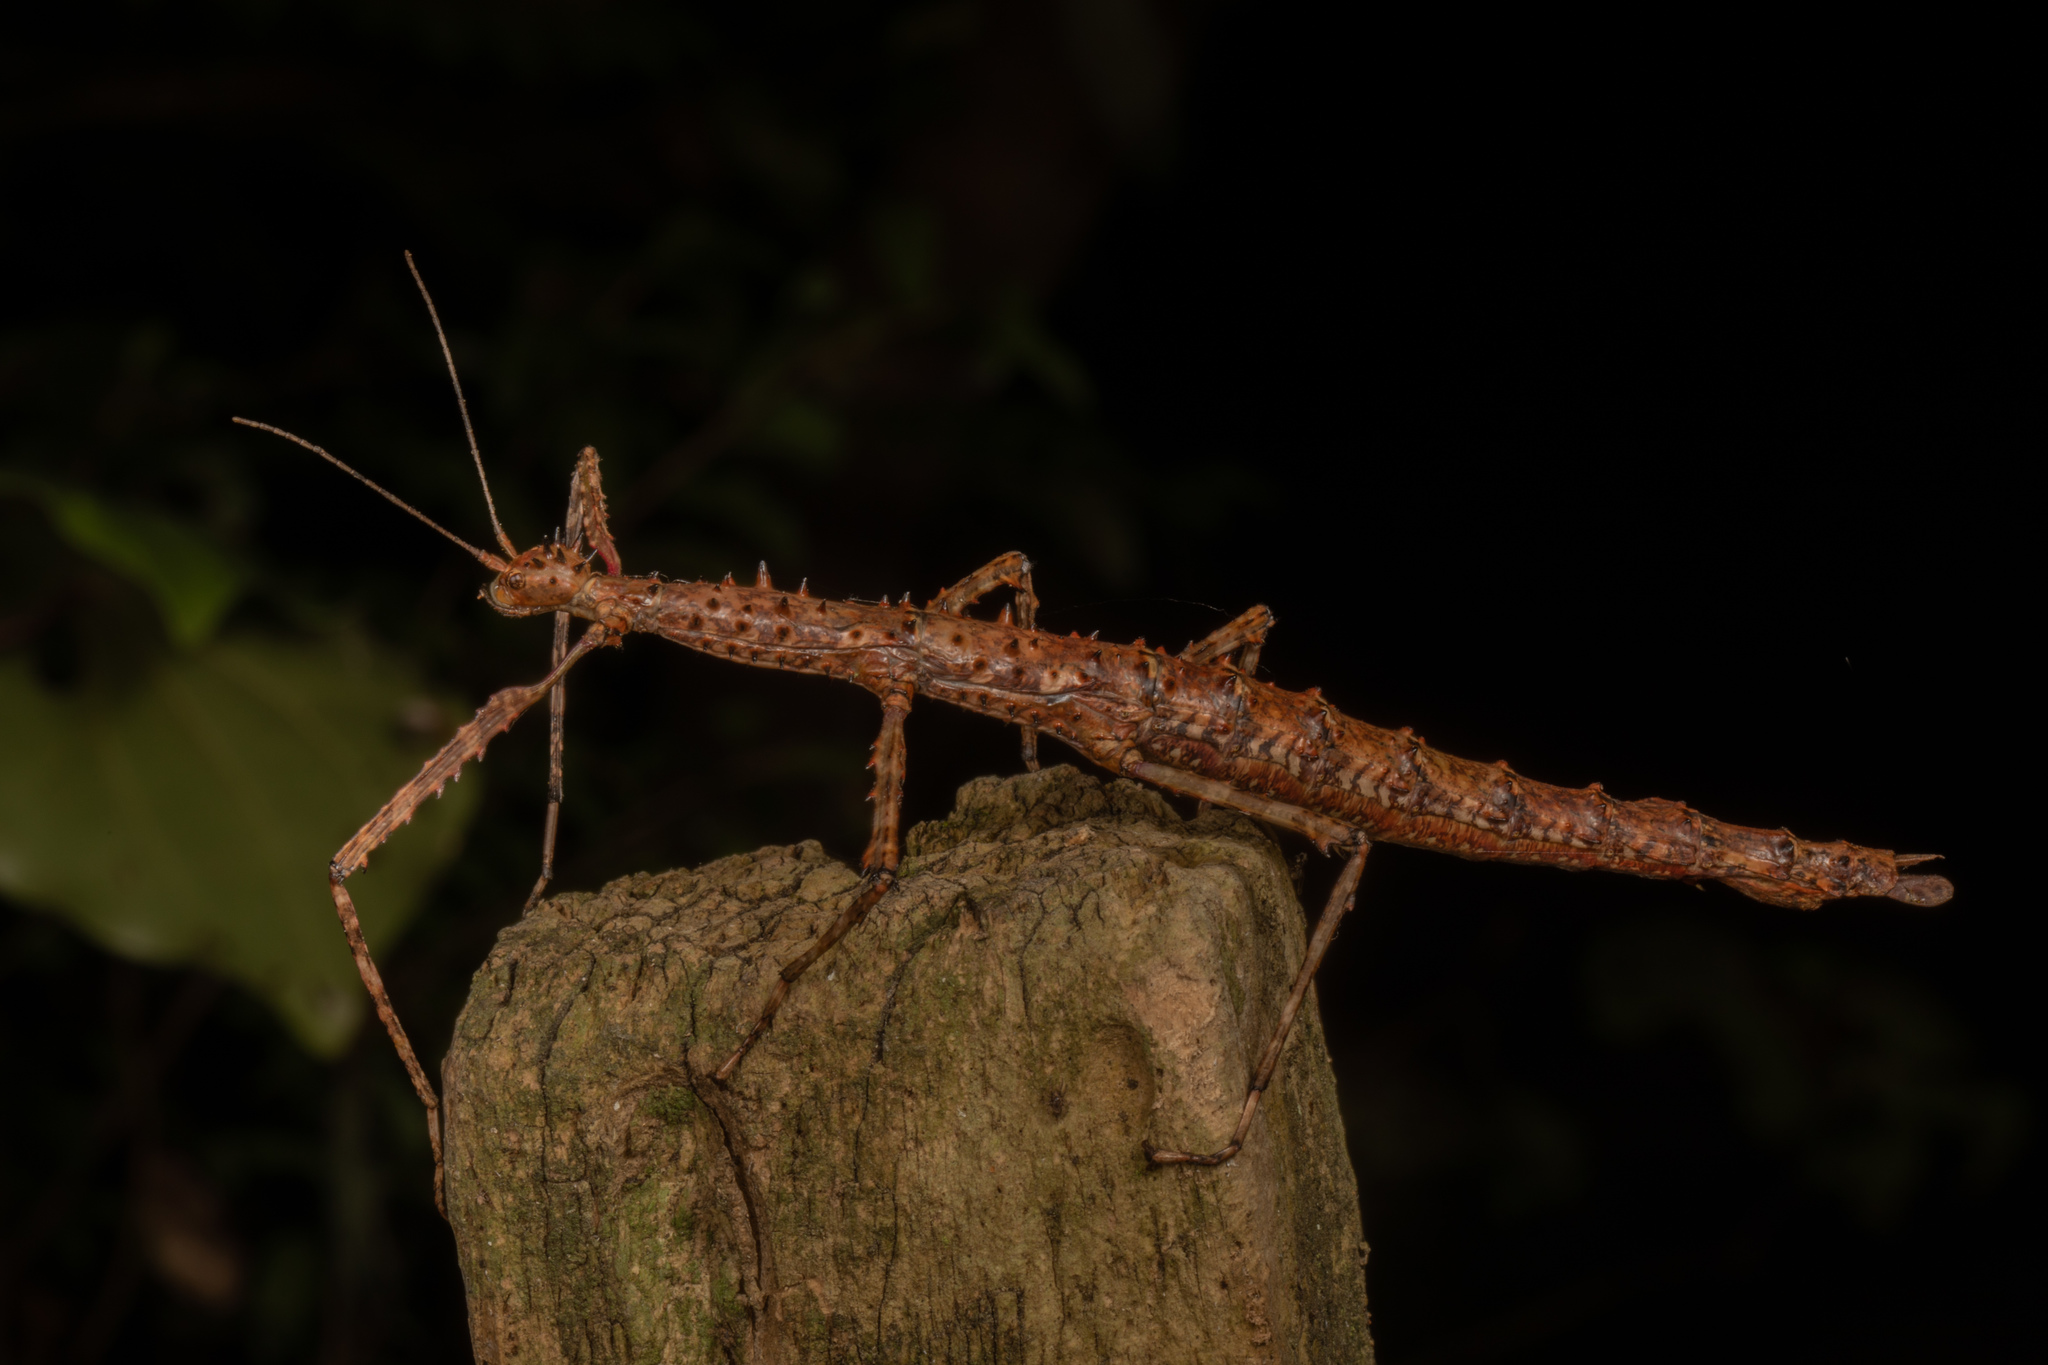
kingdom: Animalia
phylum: Arthropoda
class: Insecta
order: Phasmida
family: Phasmatidae
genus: Acanthoxyla
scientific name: Acanthoxyla prasina
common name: Black-spined stick insect
